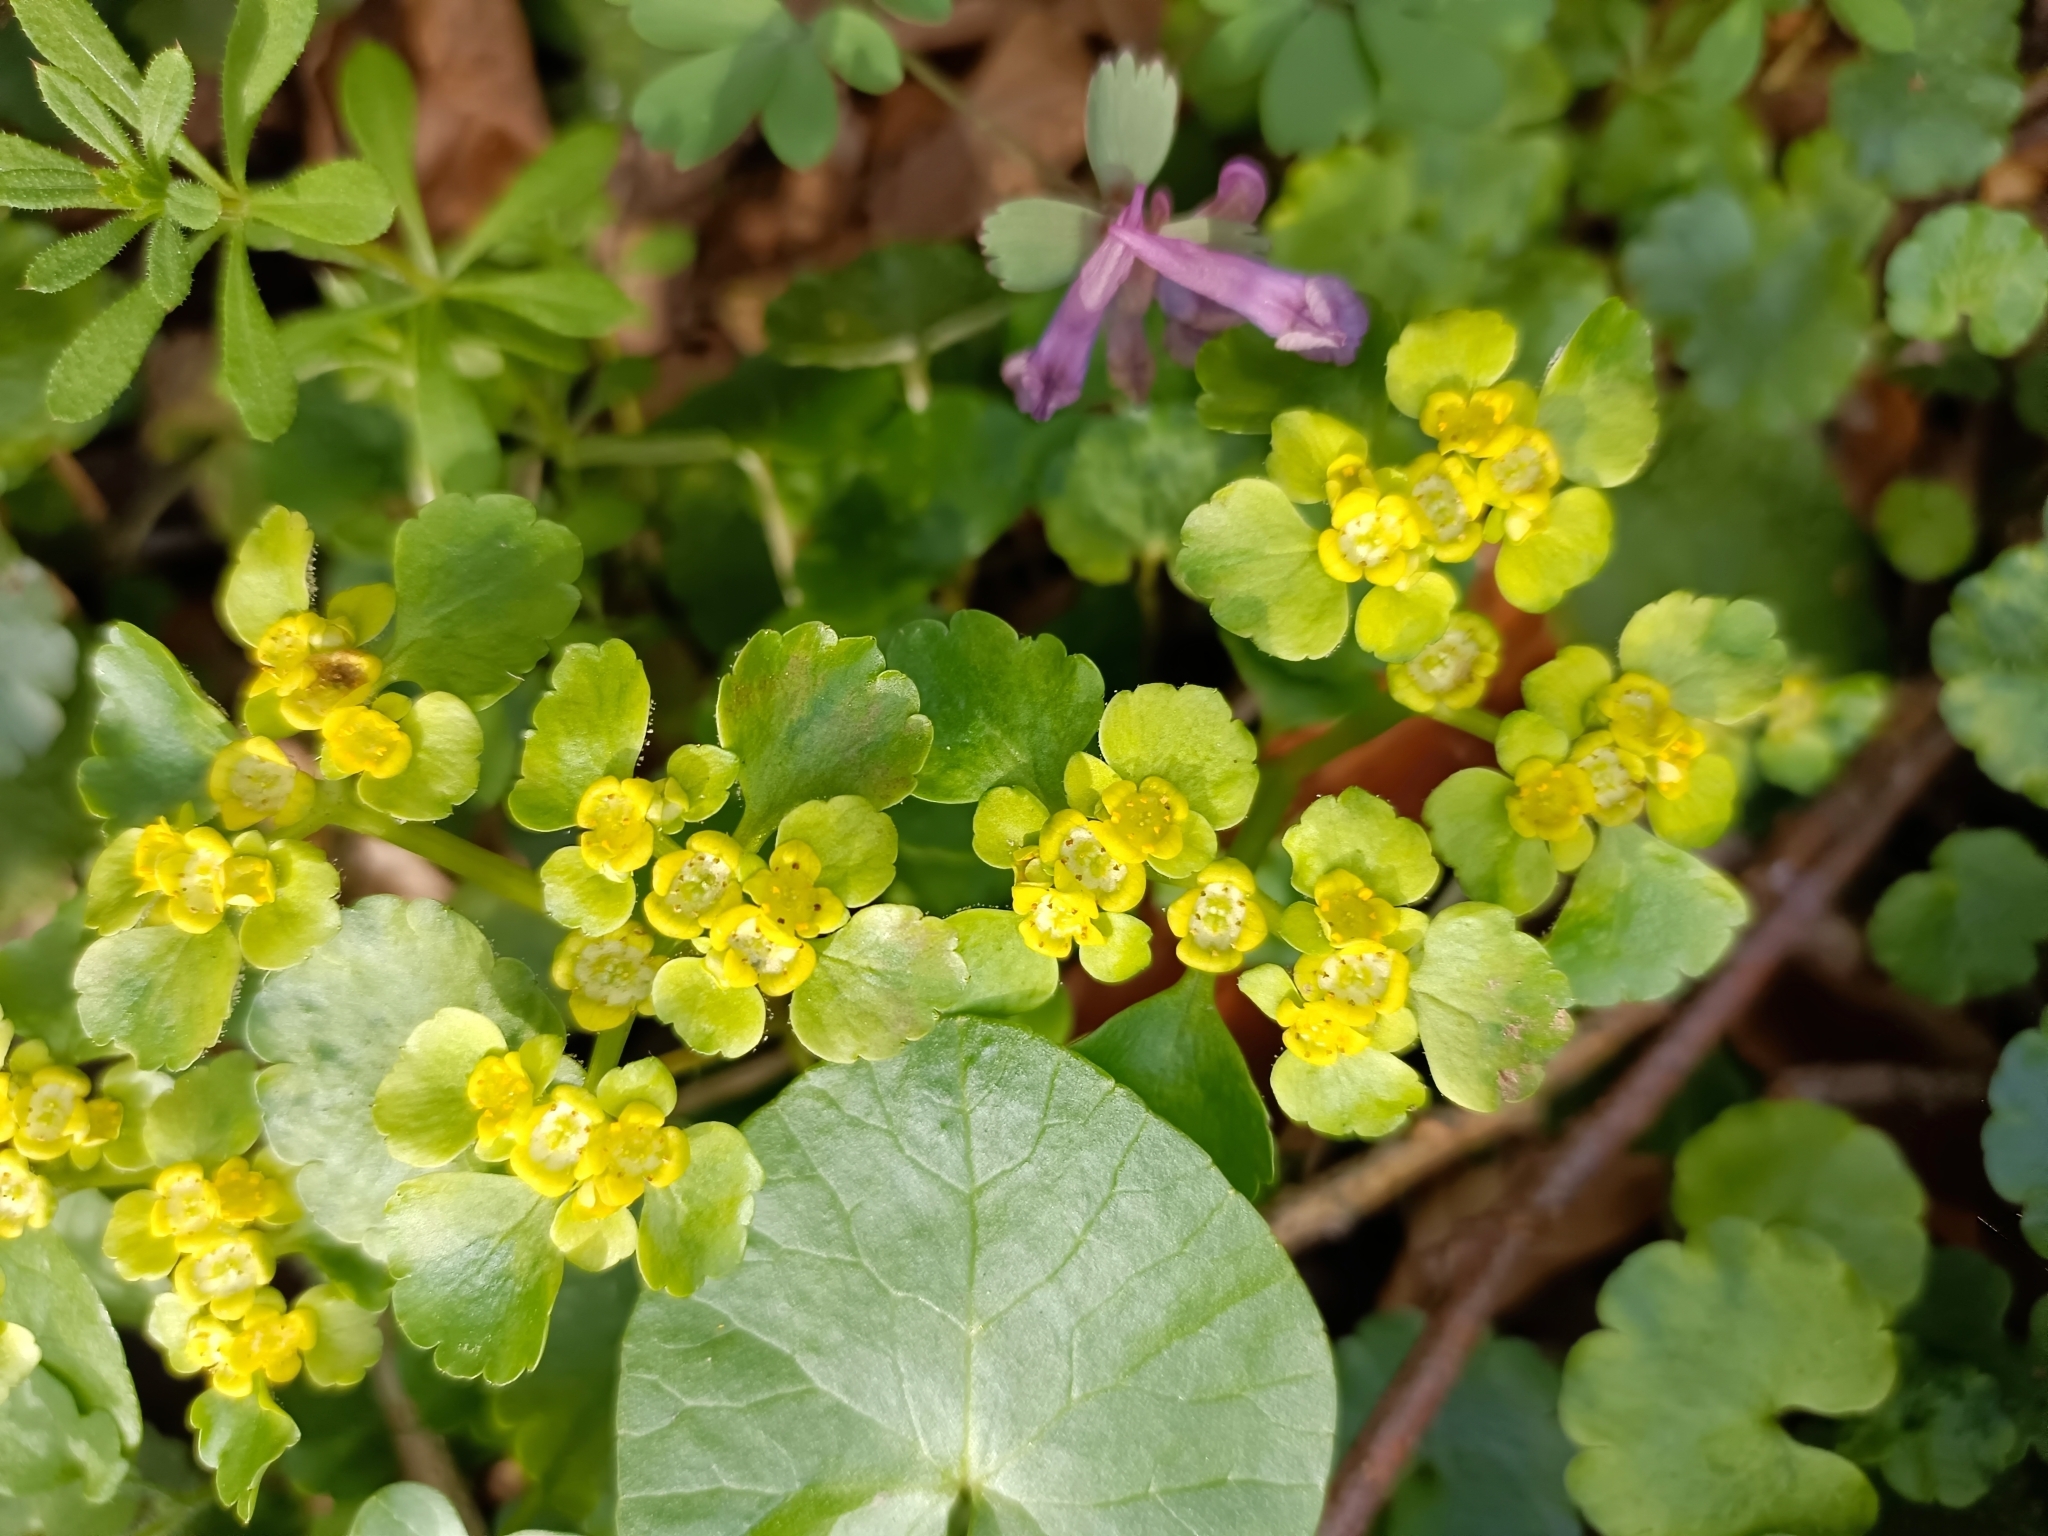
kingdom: Plantae
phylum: Tracheophyta
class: Magnoliopsida
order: Saxifragales
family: Saxifragaceae
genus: Chrysosplenium
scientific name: Chrysosplenium alternifolium
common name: Alternate-leaved golden-saxifrage
